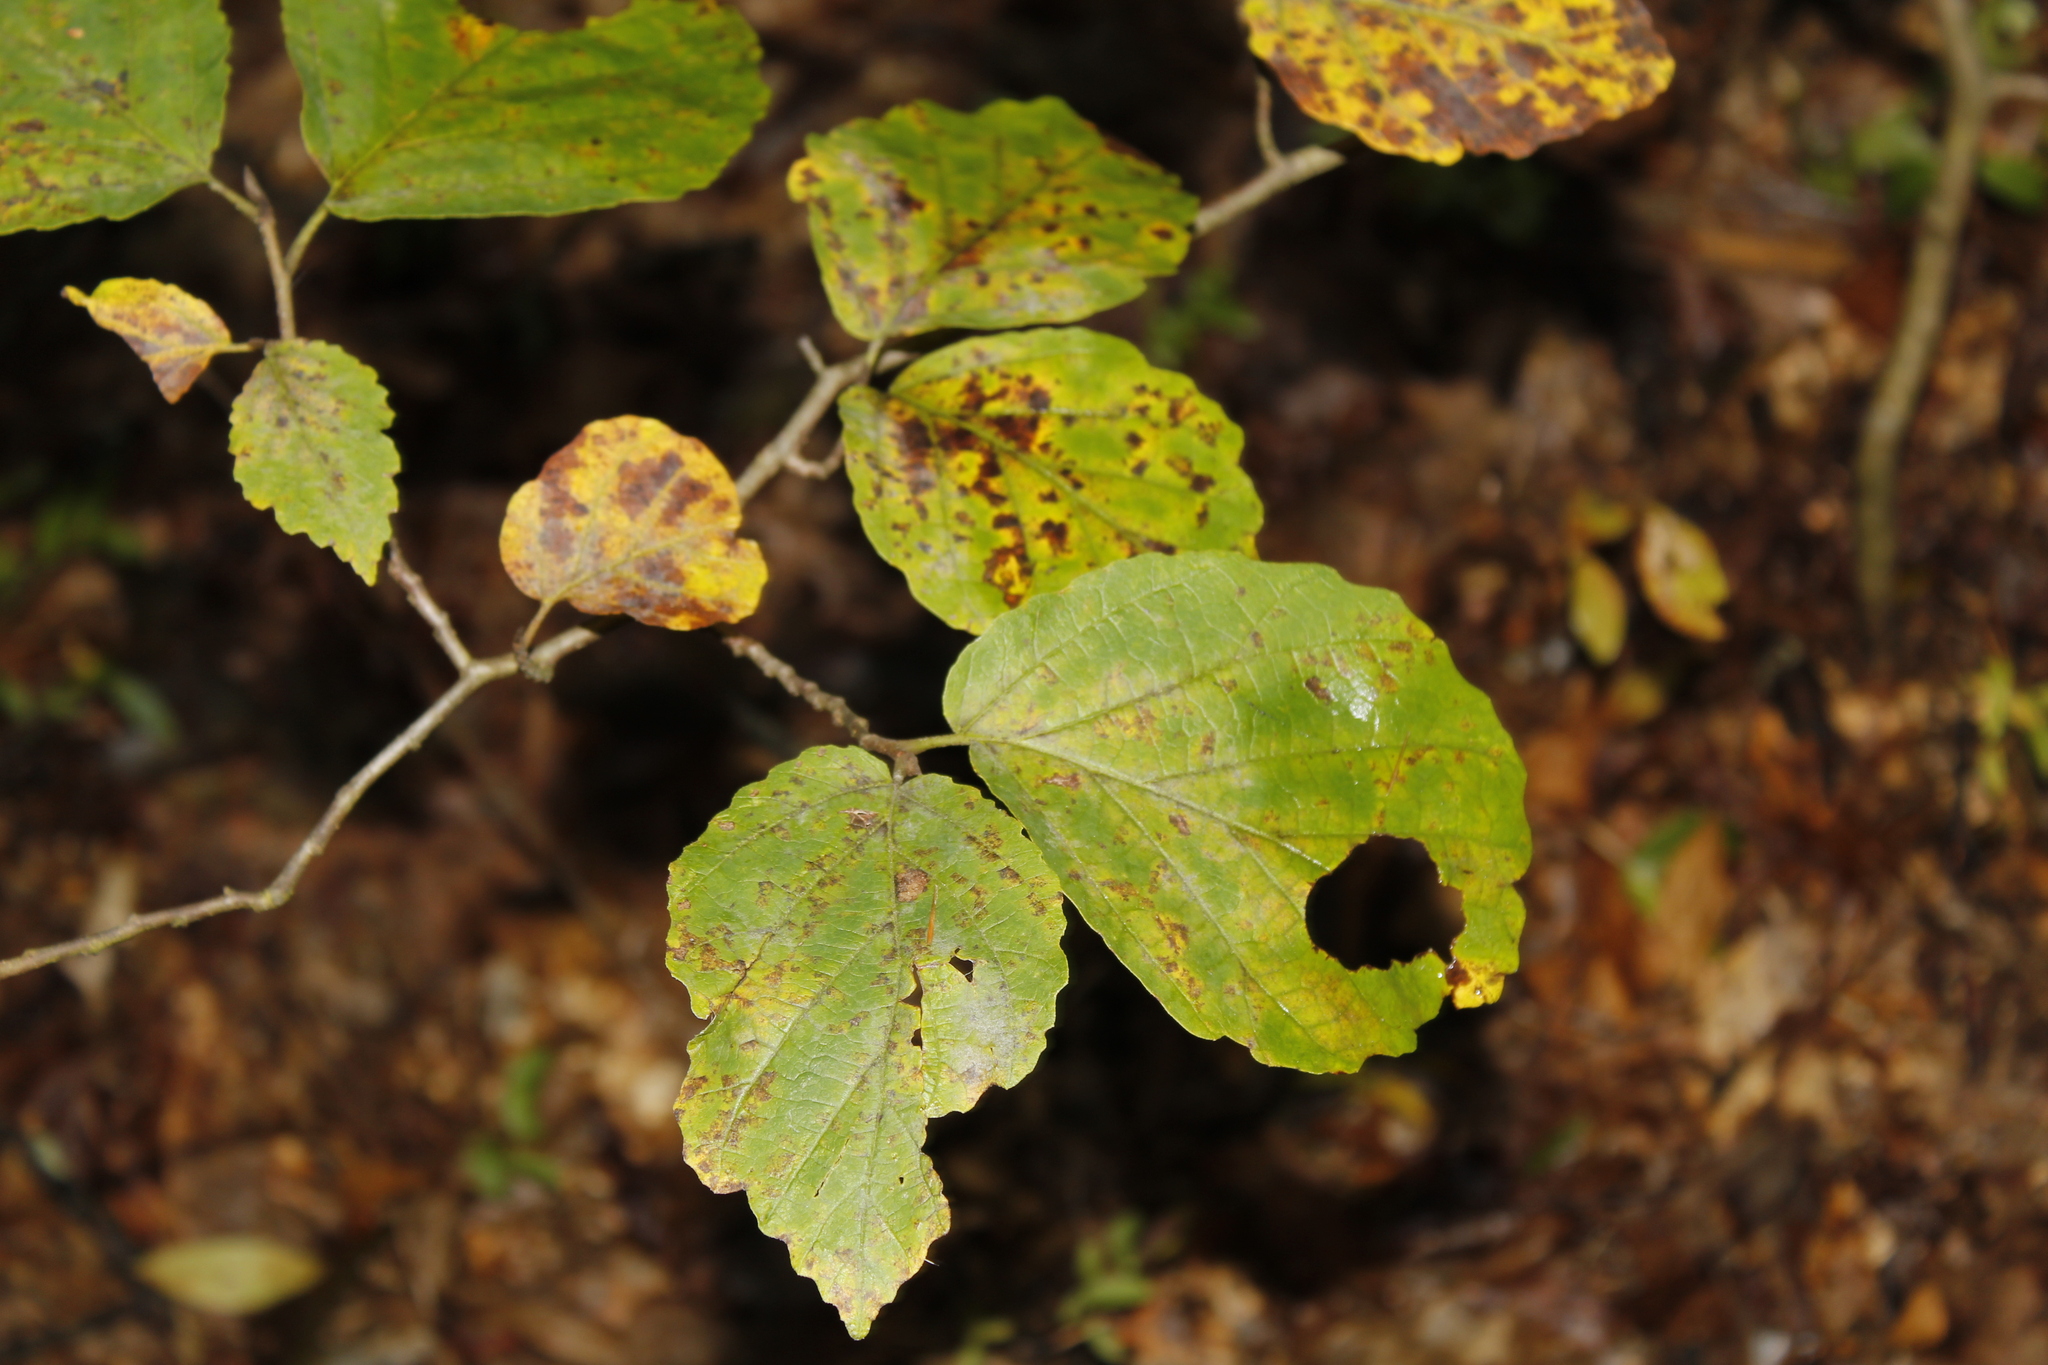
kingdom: Plantae
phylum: Tracheophyta
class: Magnoliopsida
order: Saxifragales
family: Hamamelidaceae
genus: Hamamelis
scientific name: Hamamelis virginiana
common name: Witch-hazel
